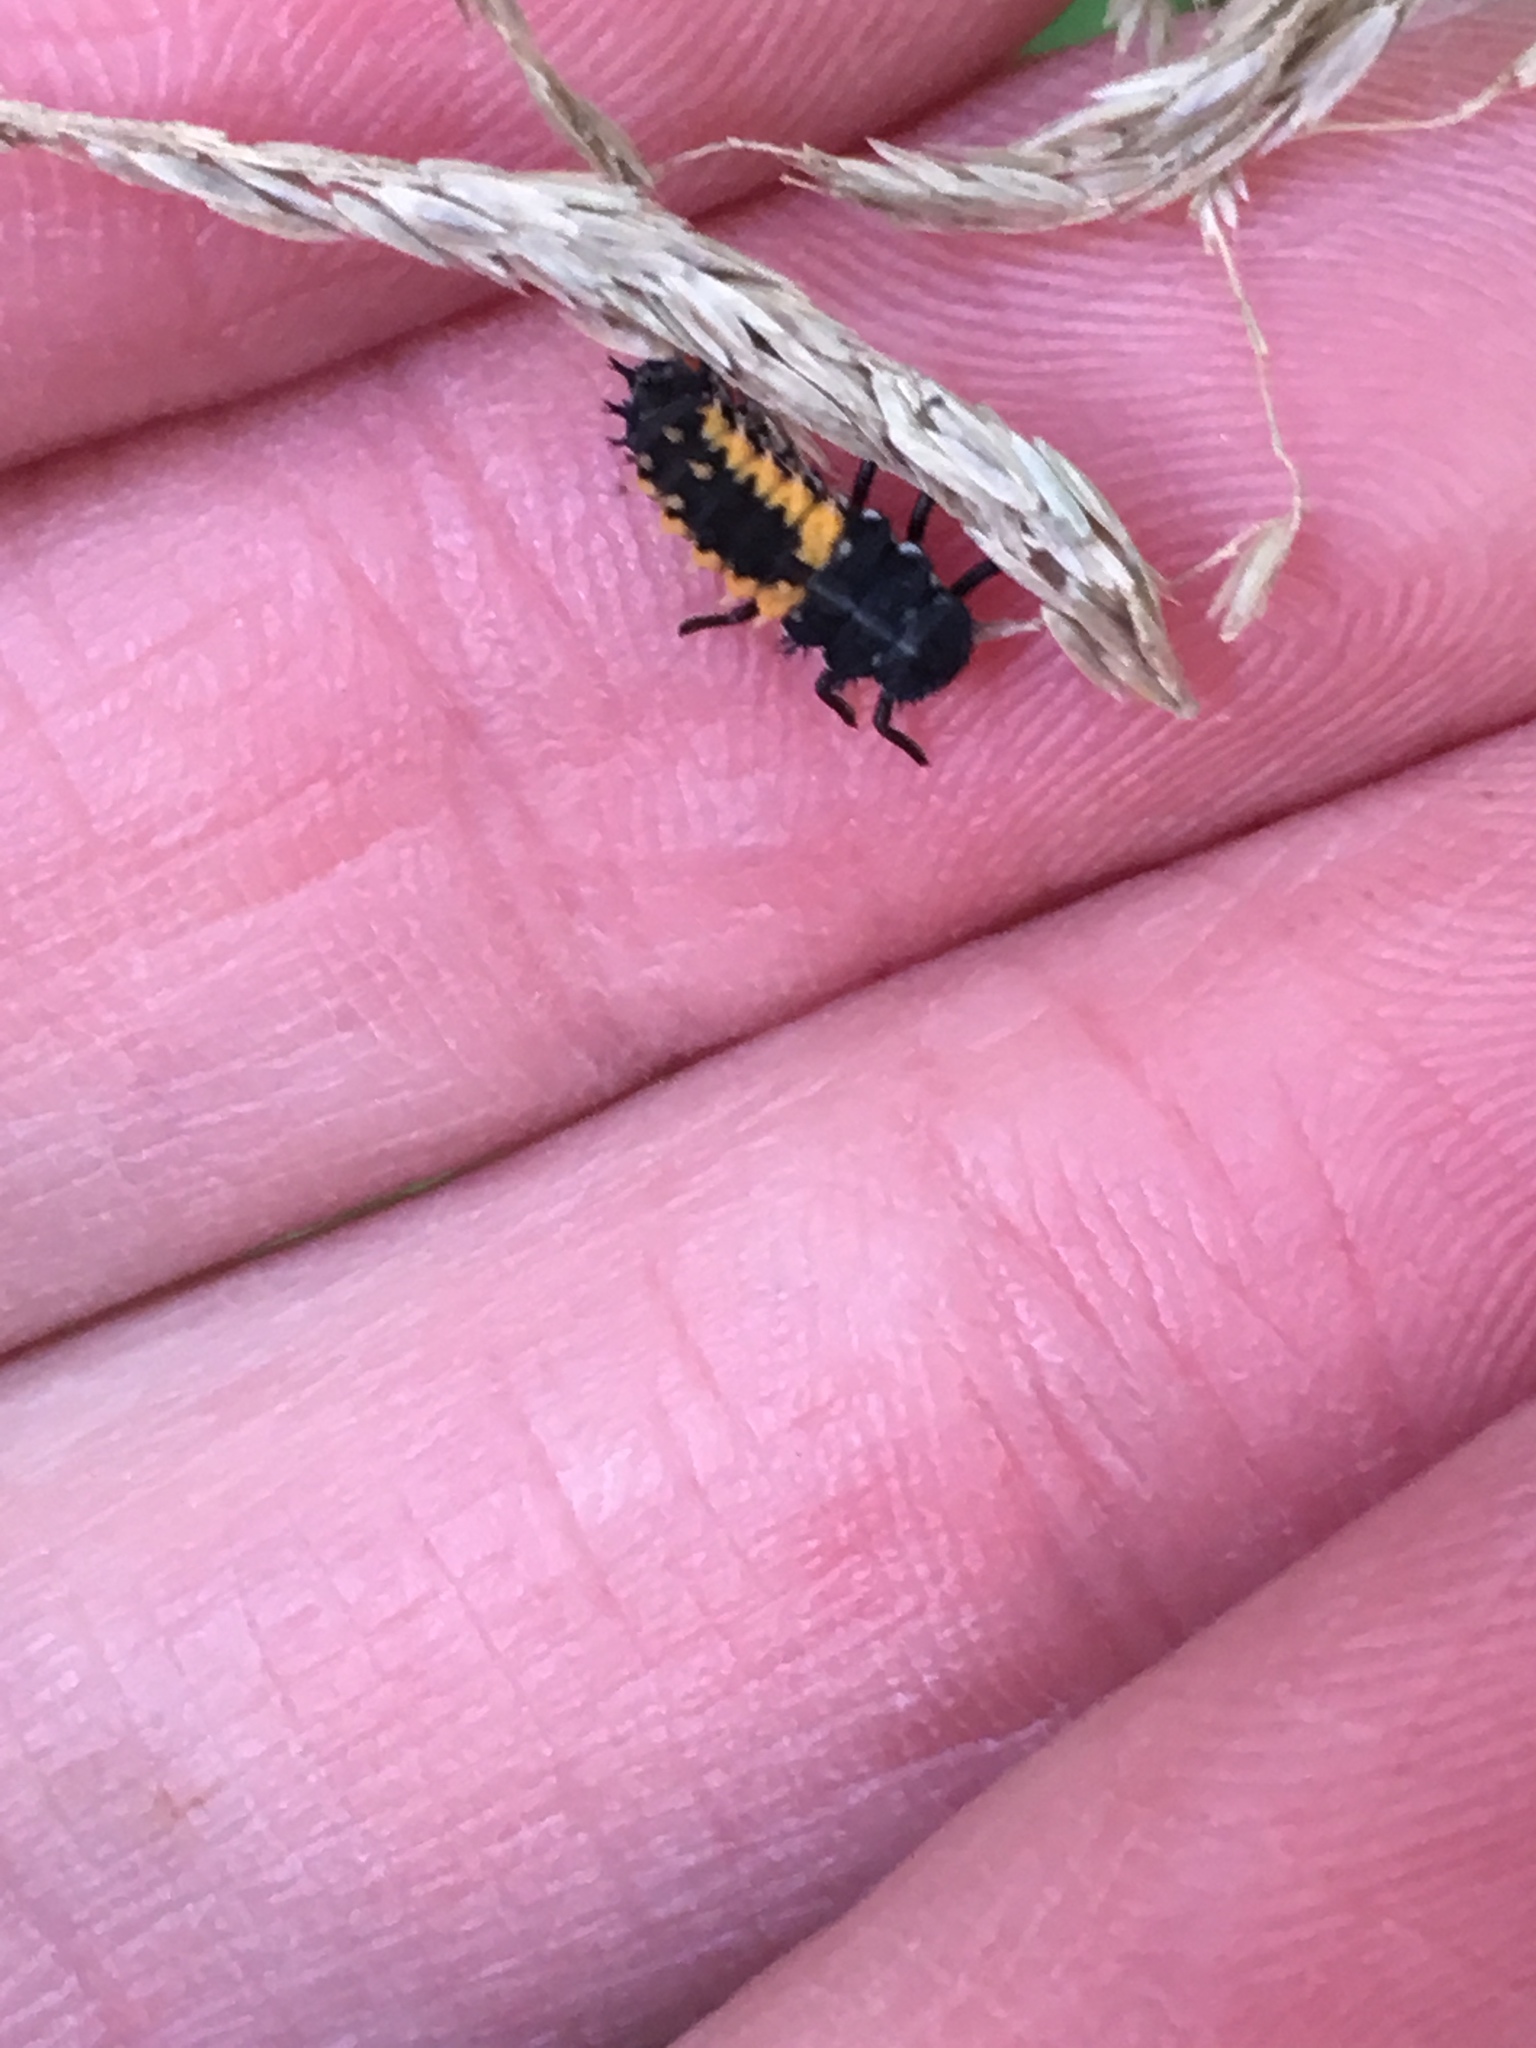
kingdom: Animalia
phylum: Arthropoda
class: Insecta
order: Coleoptera
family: Coccinellidae
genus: Harmonia
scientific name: Harmonia axyridis
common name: Harlequin ladybird
